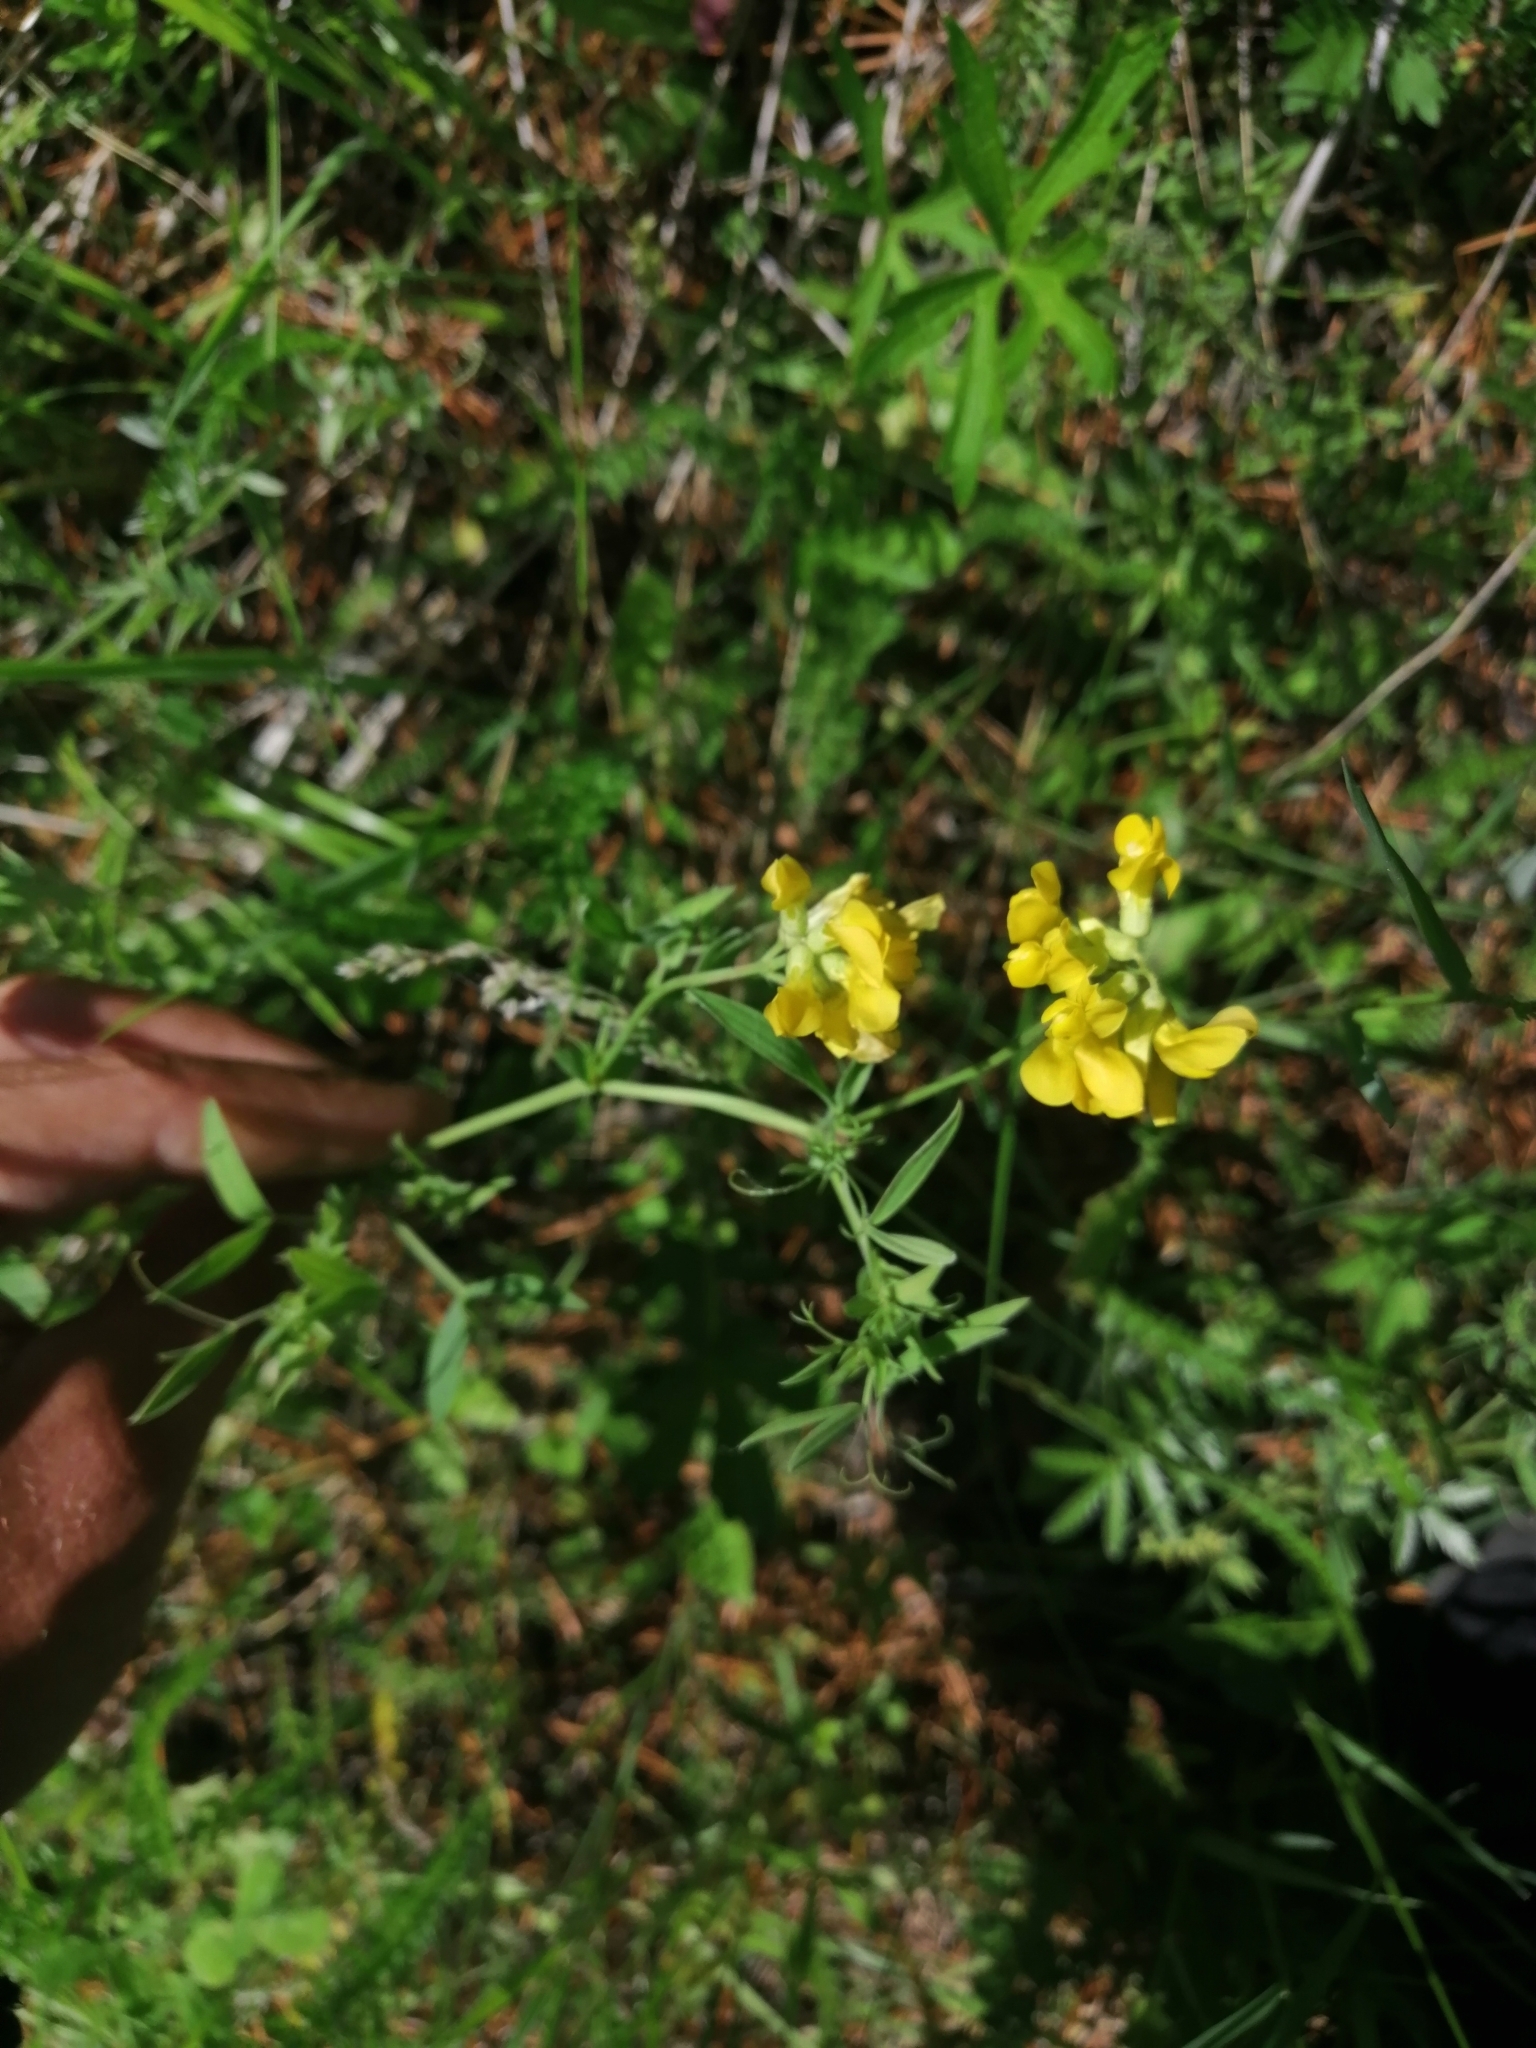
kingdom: Plantae
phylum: Tracheophyta
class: Magnoliopsida
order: Fabales
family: Fabaceae
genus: Lathyrus
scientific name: Lathyrus pratensis
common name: Meadow vetchling
